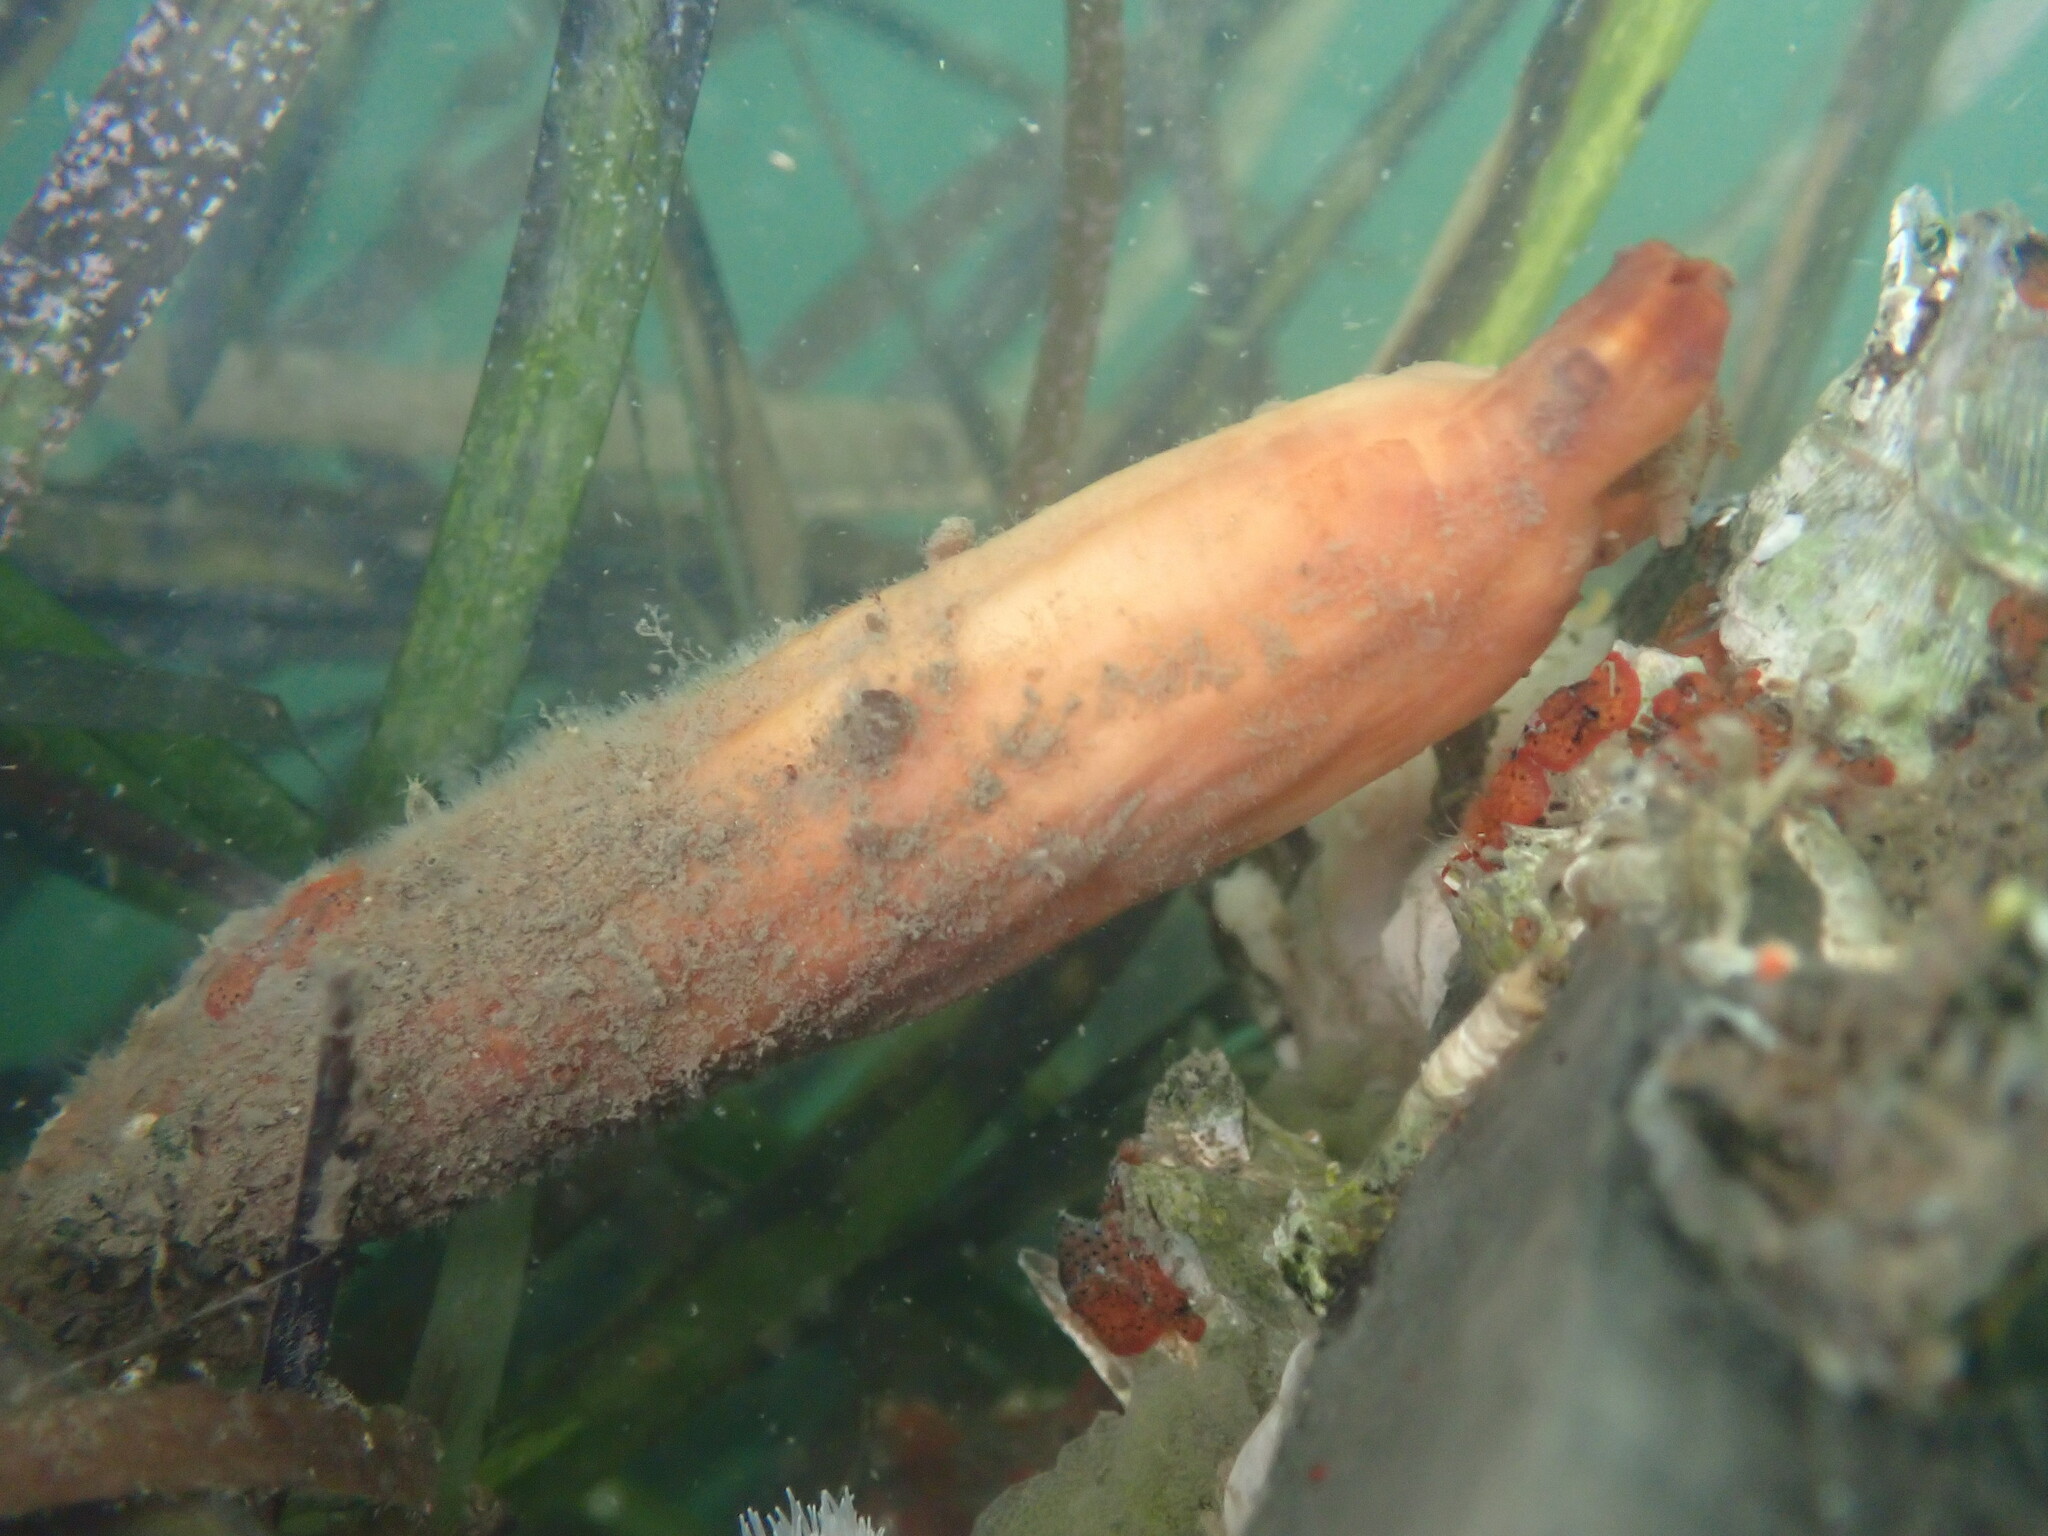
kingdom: Animalia
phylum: Chordata
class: Ascidiacea
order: Stolidobranchia
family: Styelidae
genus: Styela
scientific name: Styela montereyensis
